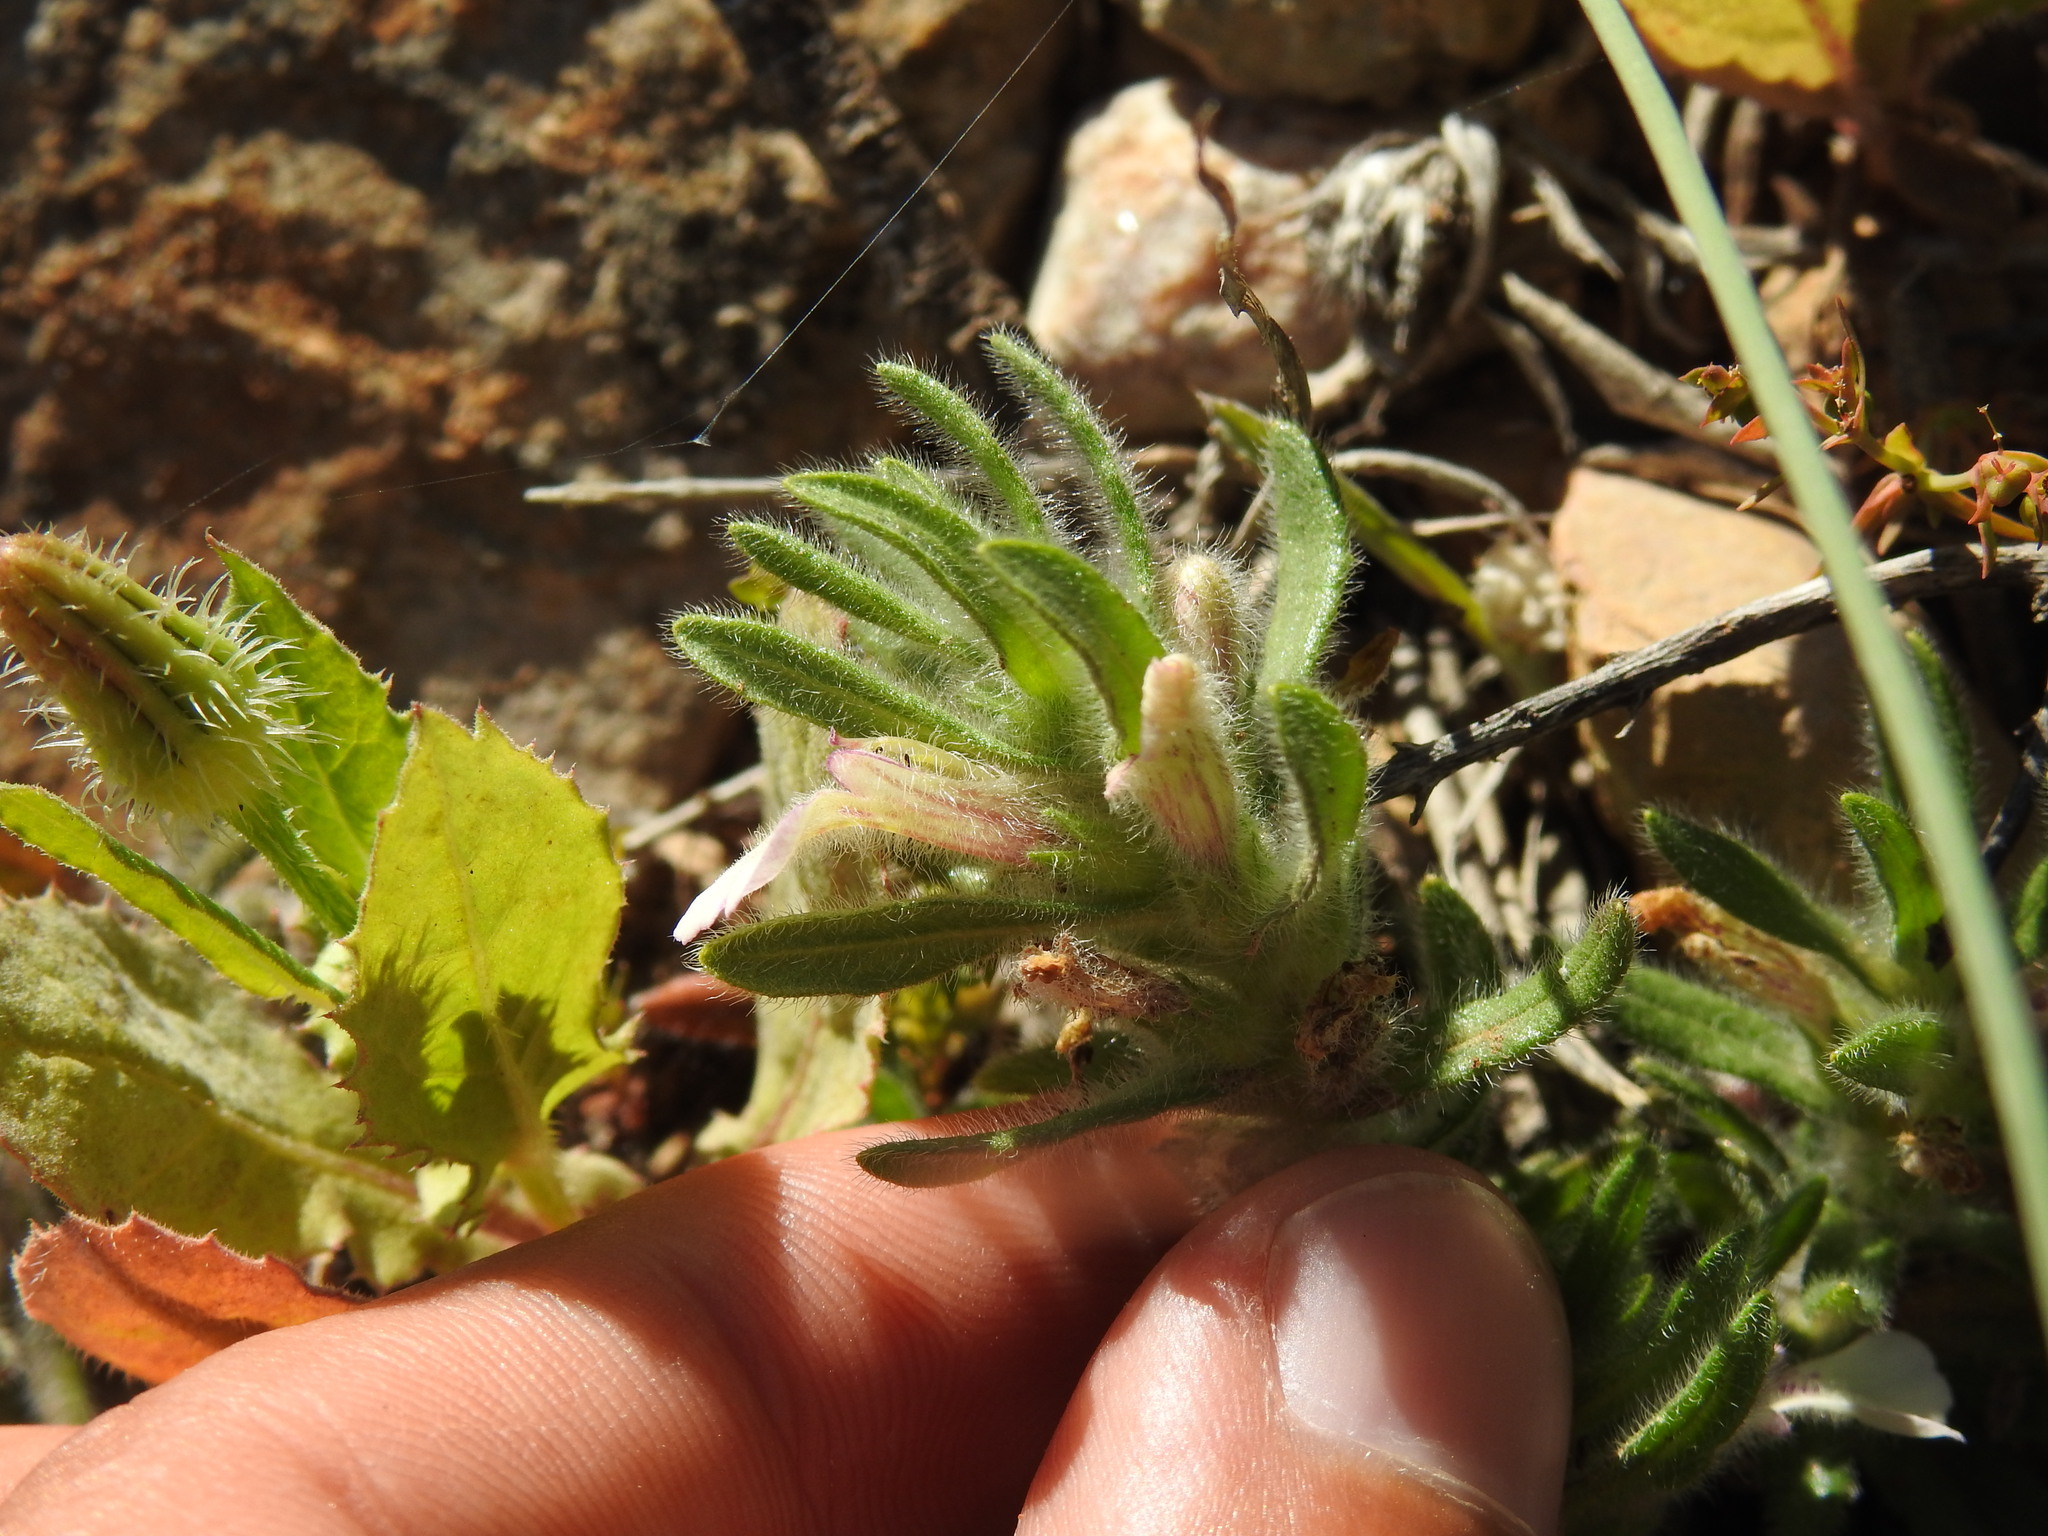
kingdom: Plantae
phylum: Tracheophyta
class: Magnoliopsida
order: Lamiales
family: Lamiaceae
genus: Ajuga
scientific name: Ajuga iva
